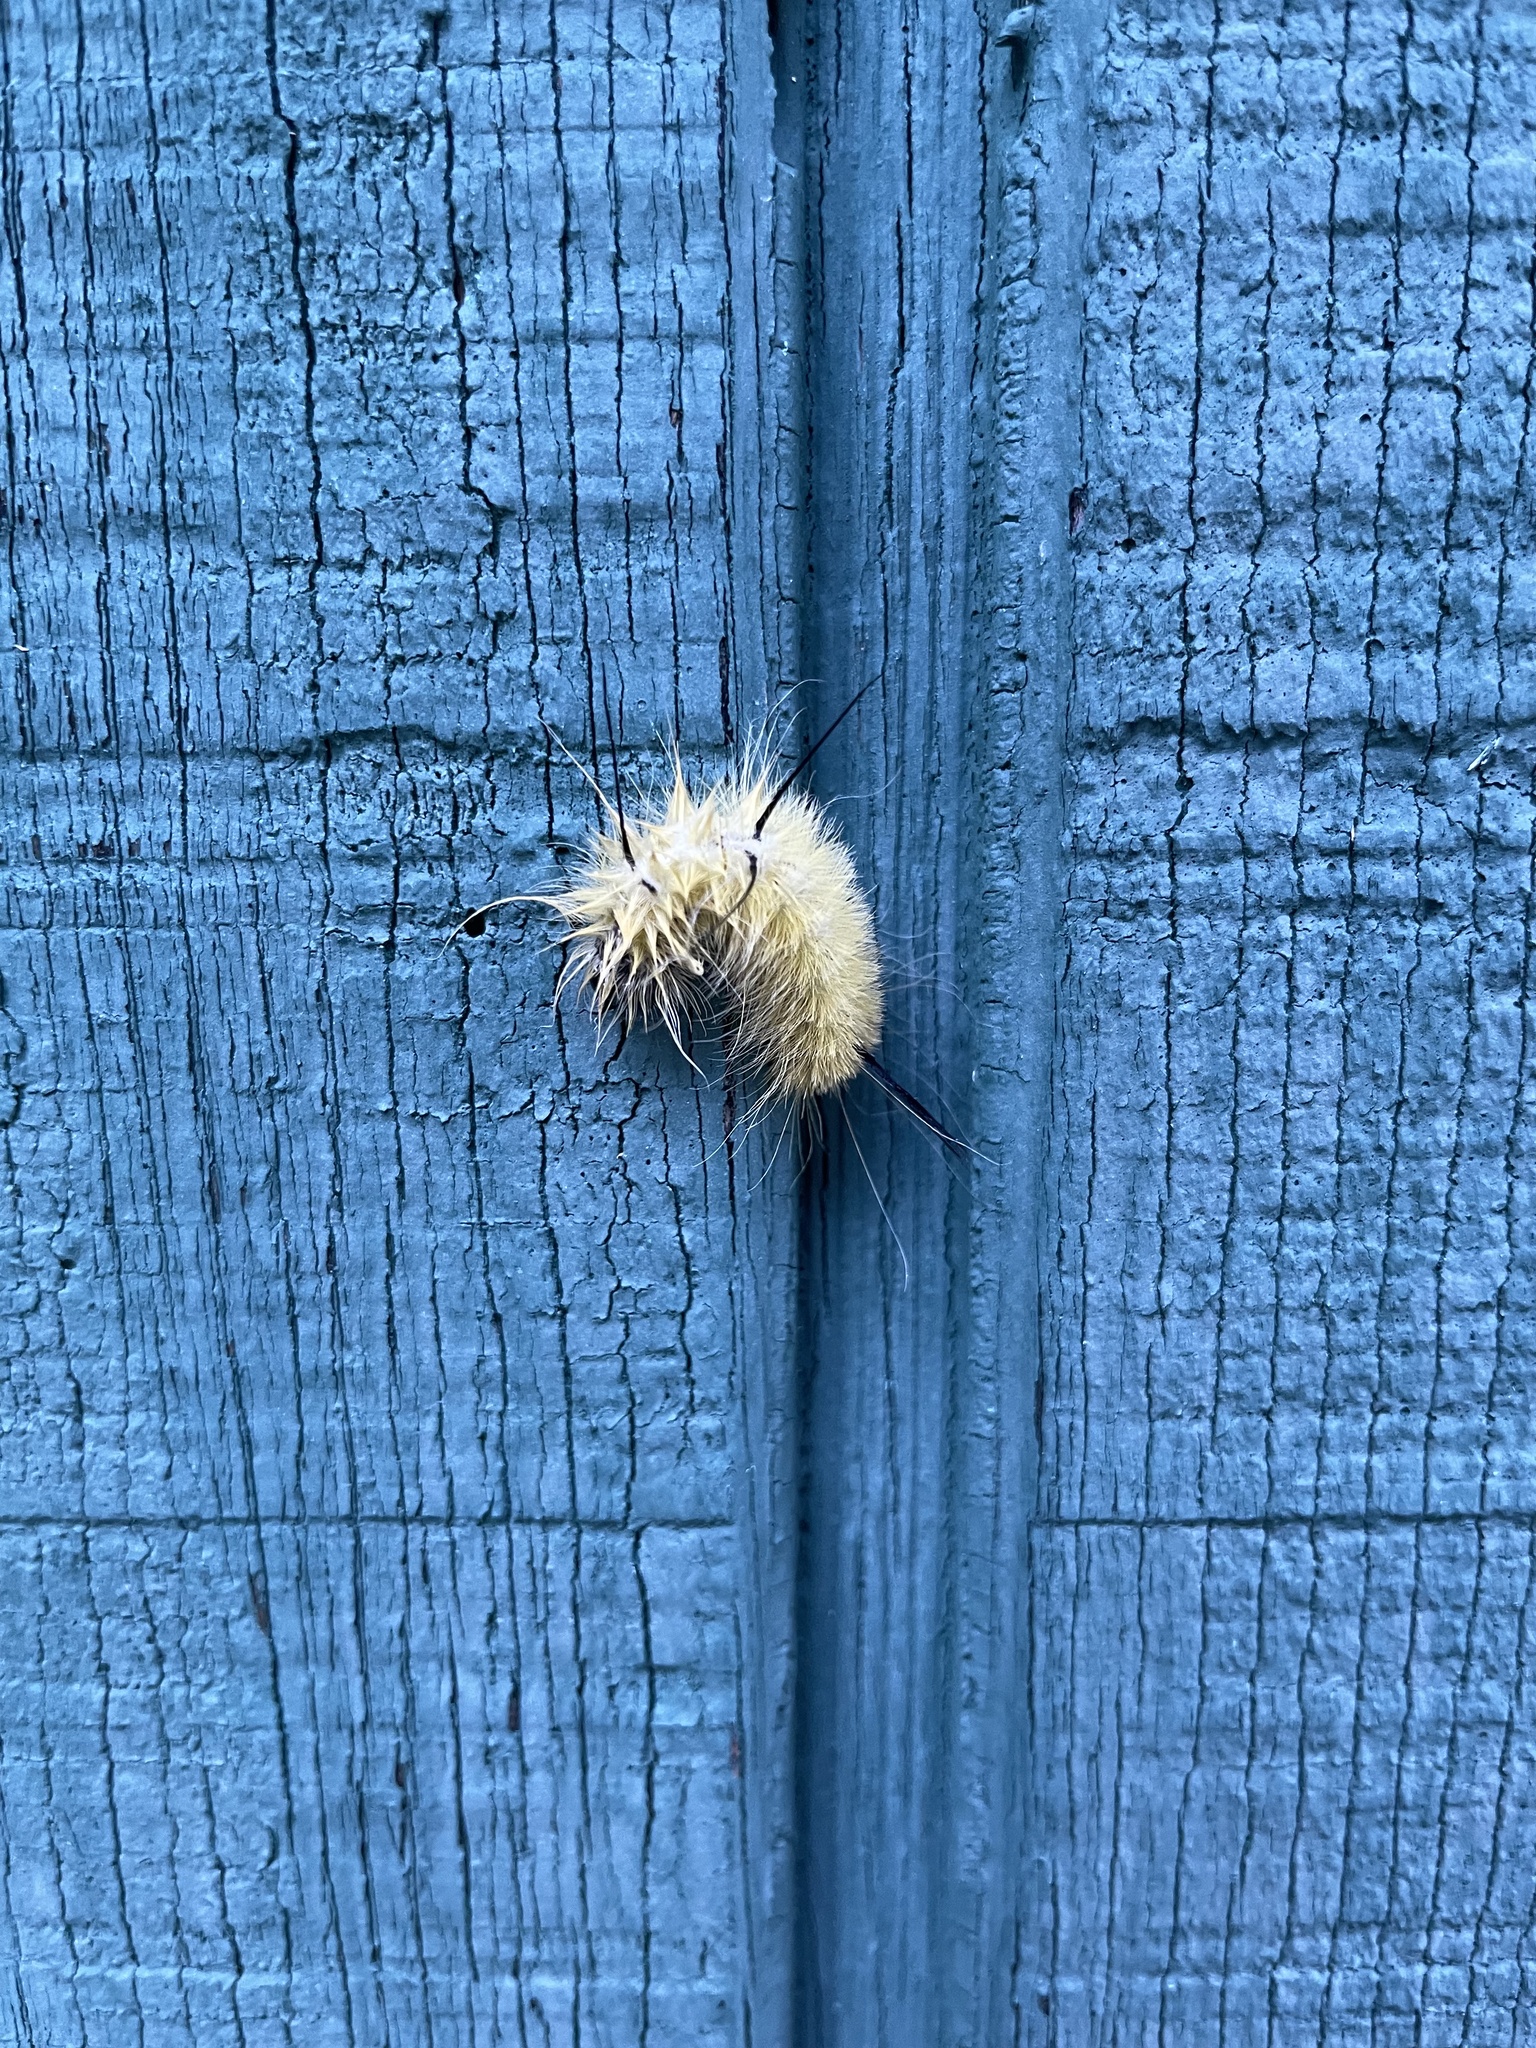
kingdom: Animalia
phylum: Arthropoda
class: Insecta
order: Lepidoptera
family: Noctuidae
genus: Acronicta
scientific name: Acronicta americana
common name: American dagger
